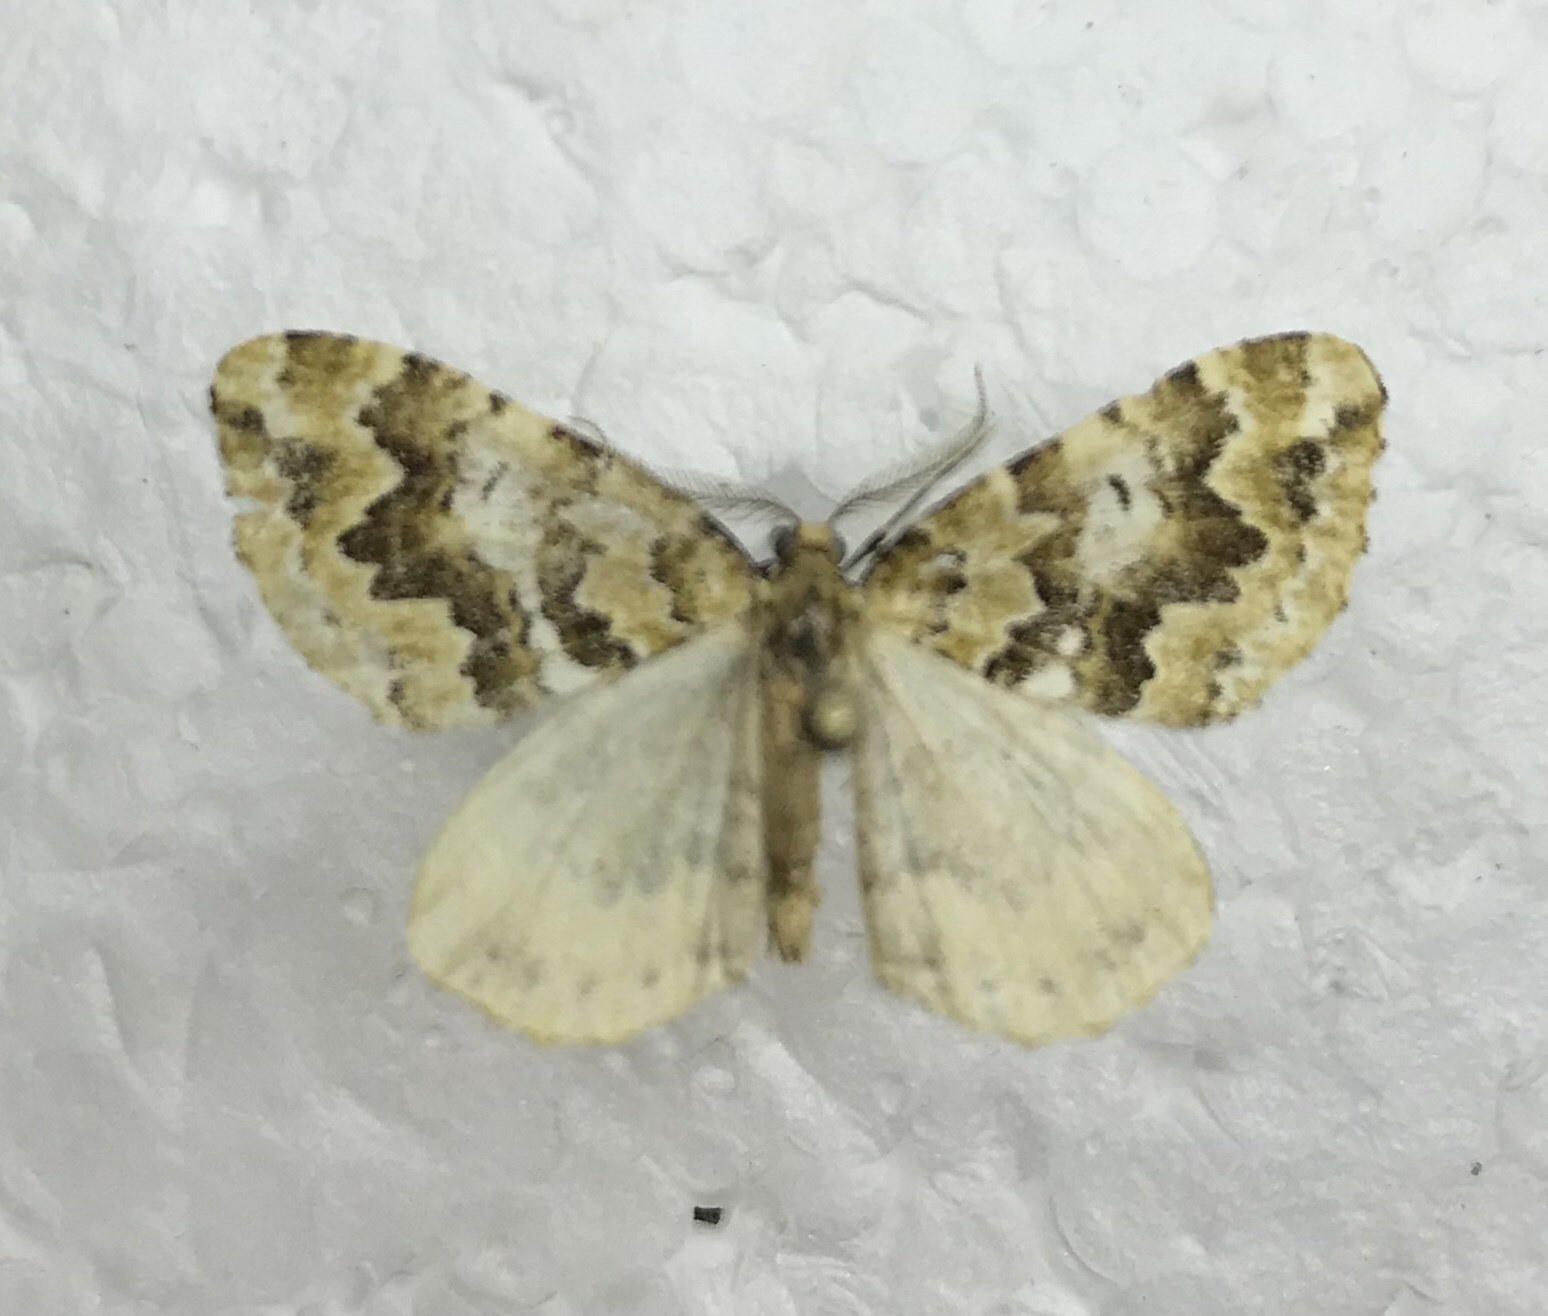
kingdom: Animalia
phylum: Arthropoda
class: Insecta
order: Lepidoptera
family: Geometridae
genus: Asaphodes
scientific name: Asaphodes beata
